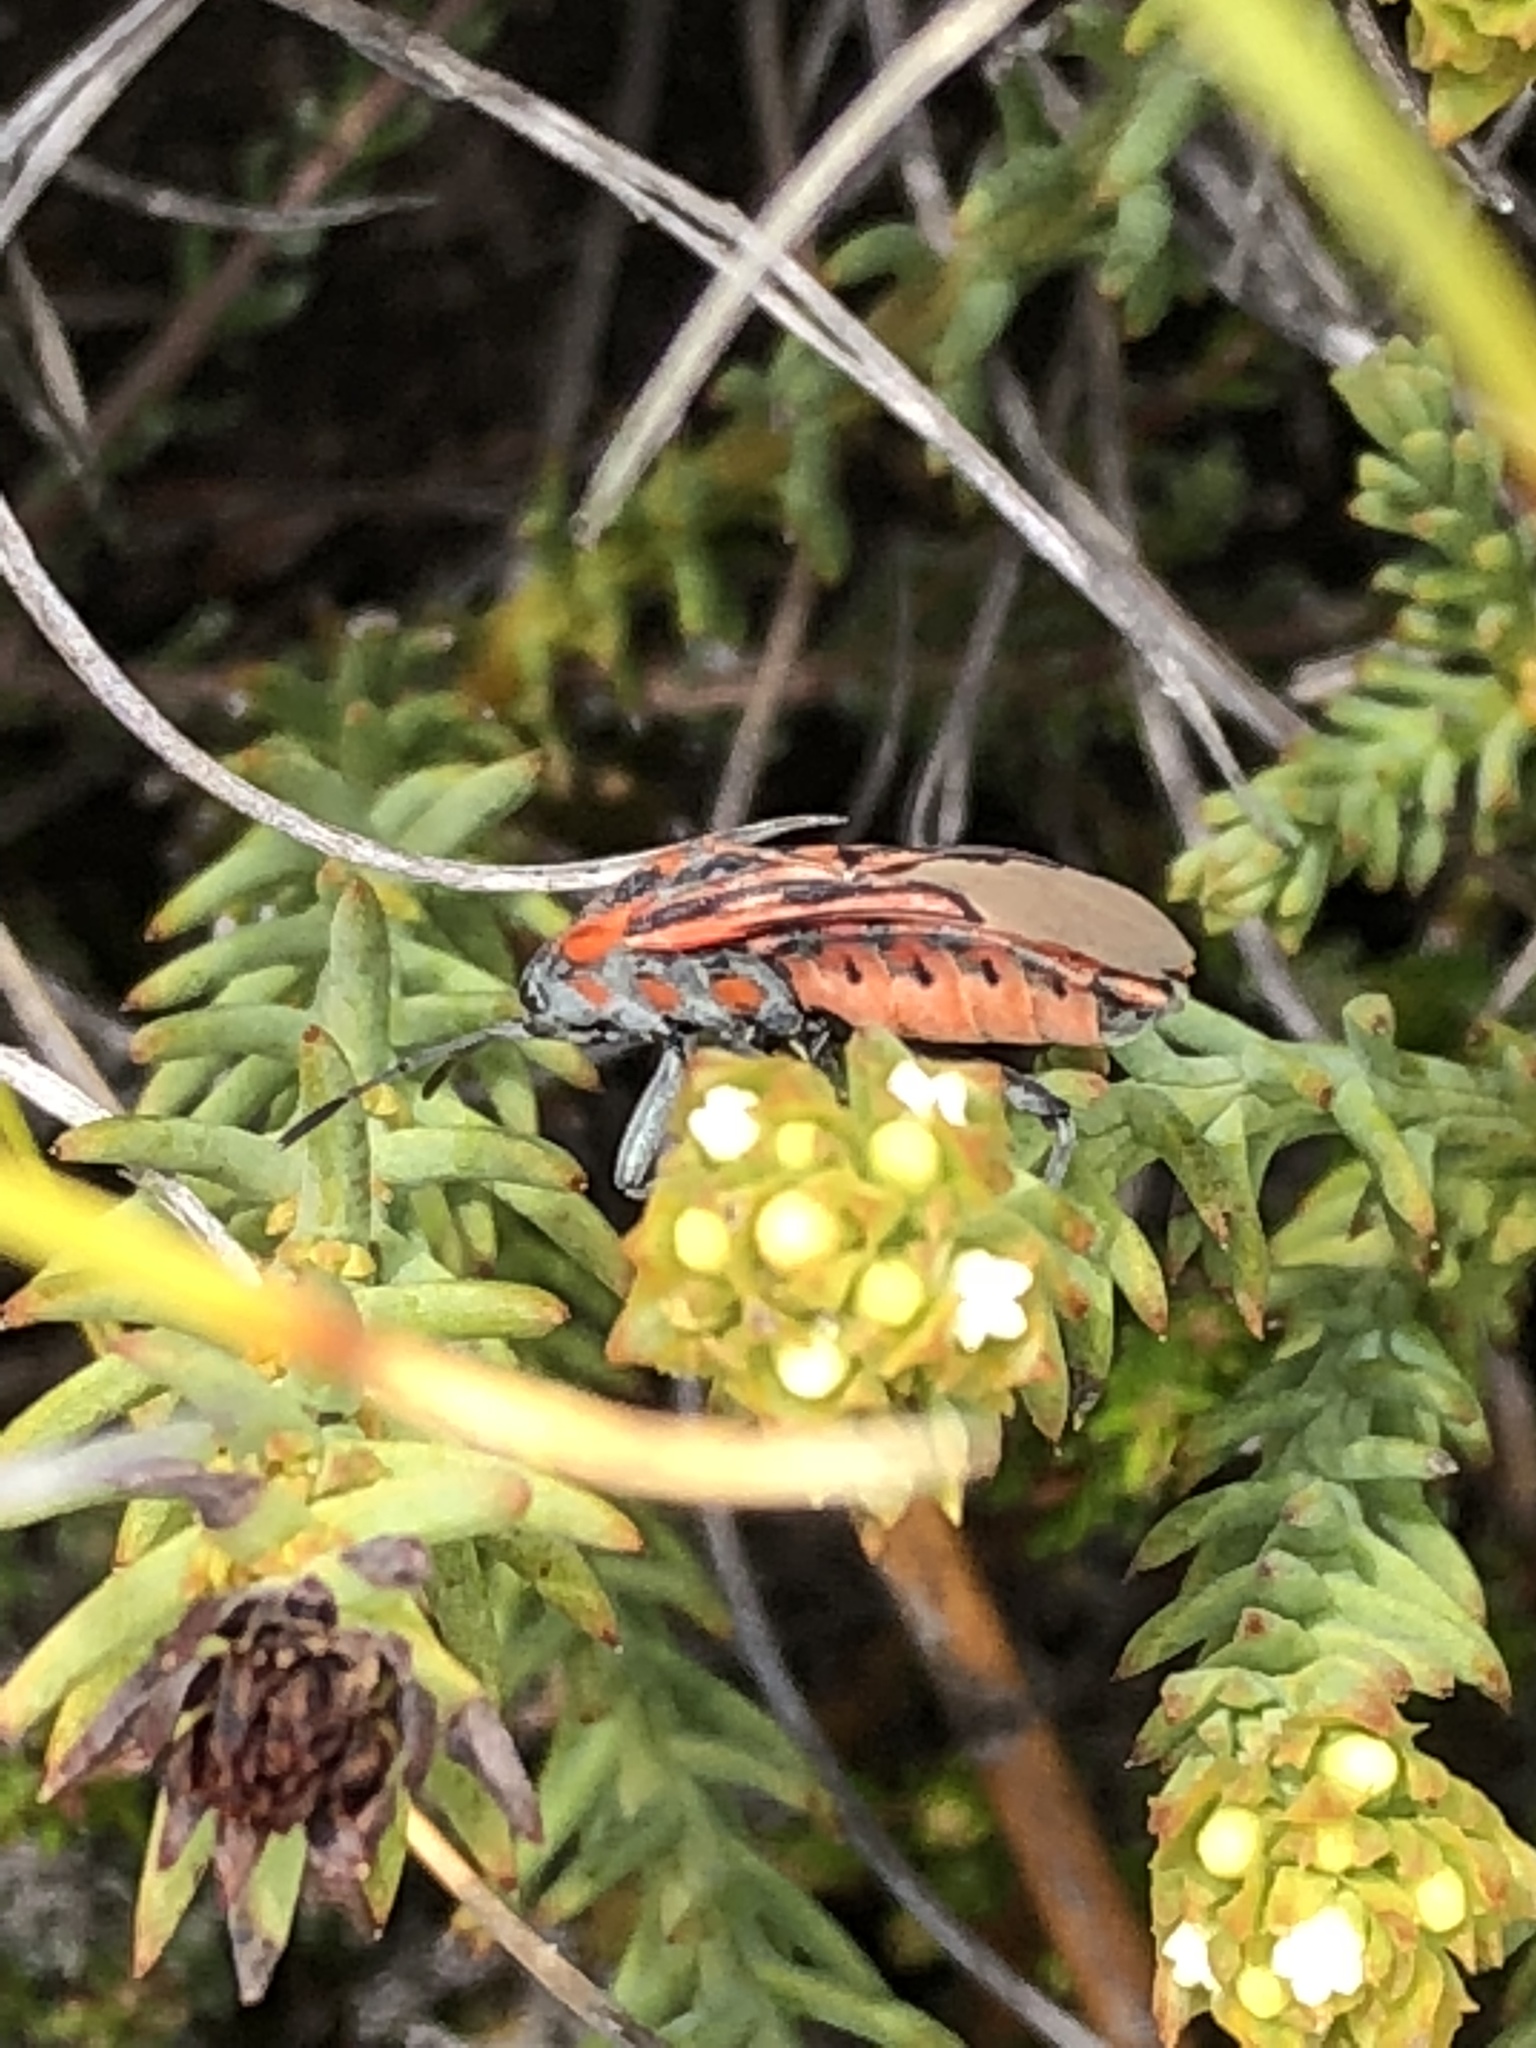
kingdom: Animalia
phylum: Arthropoda
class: Insecta
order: Hemiptera
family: Lygaeidae
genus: Spilostethus
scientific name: Spilostethus crudelis
